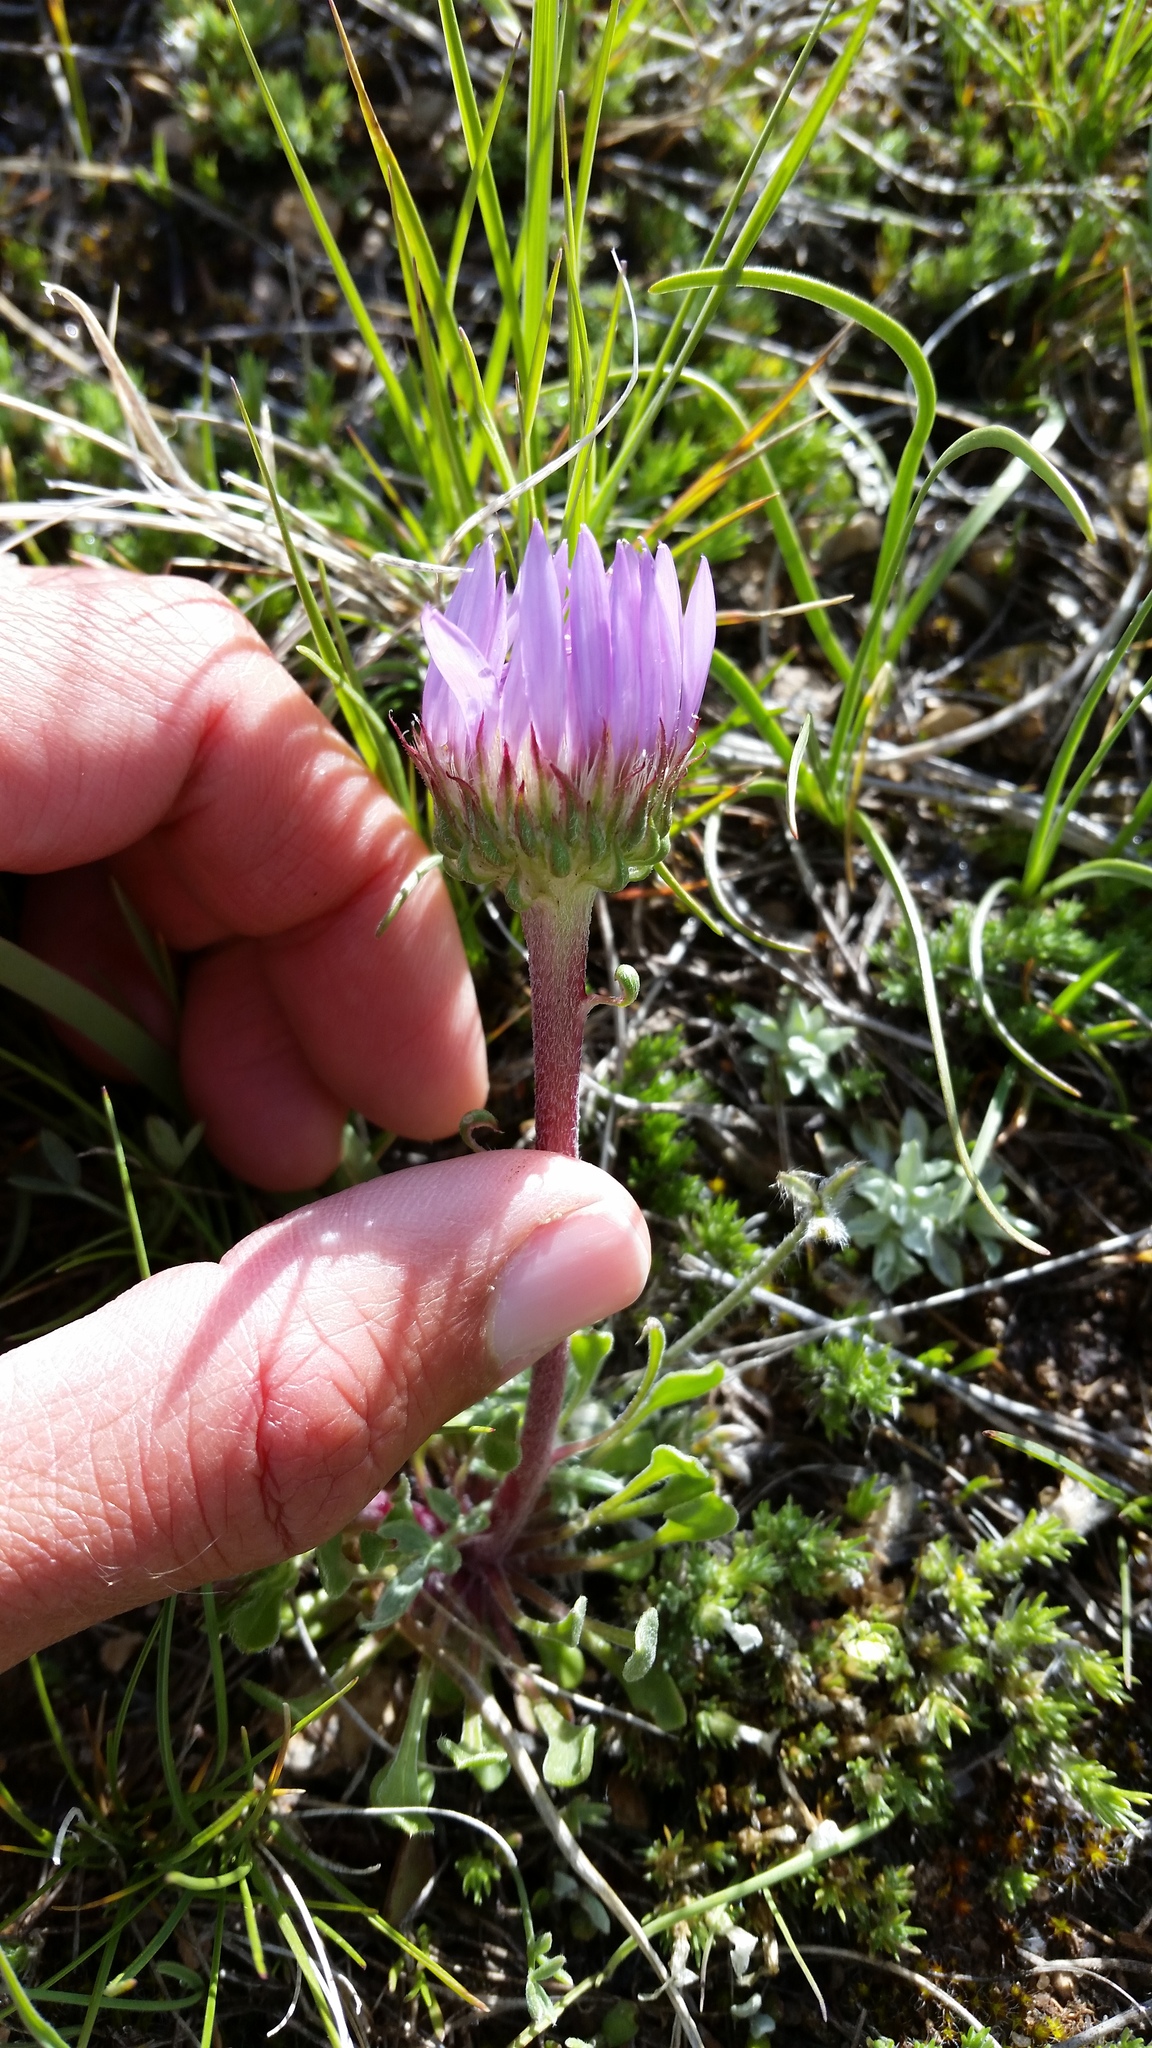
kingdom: Plantae
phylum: Tracheophyta
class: Magnoliopsida
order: Asterales
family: Asteraceae
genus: Townsendia
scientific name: Townsendia parryi
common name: Parry's townsend daisy
